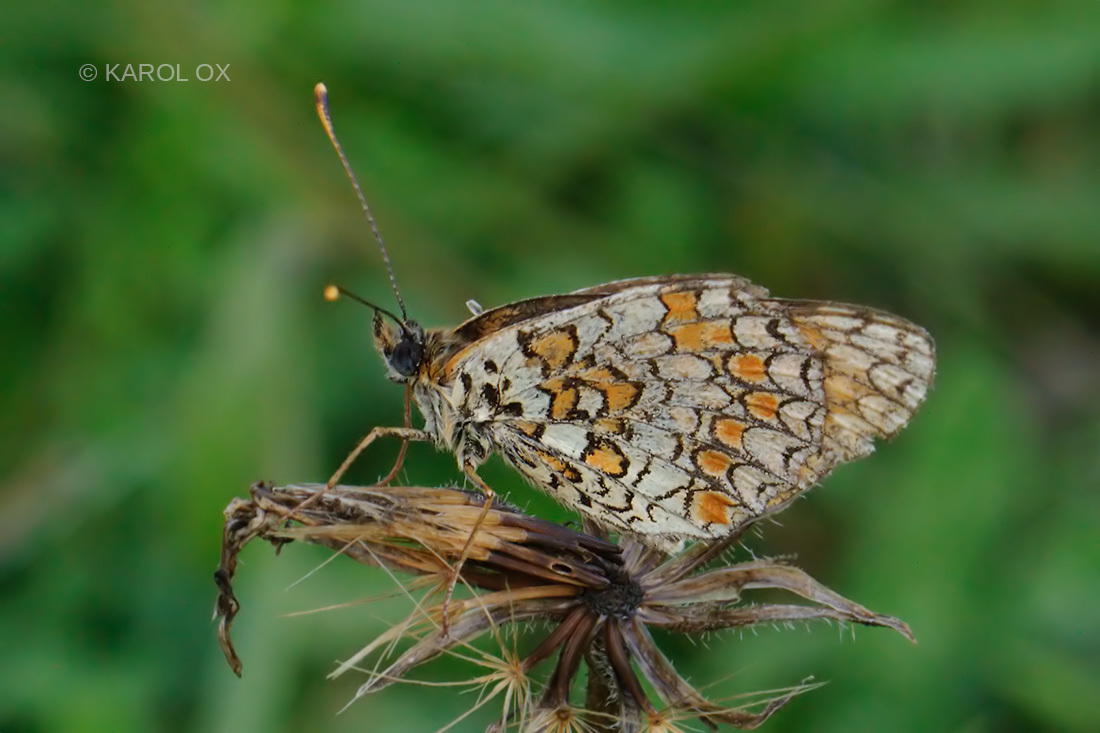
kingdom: Animalia
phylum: Arthropoda
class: Insecta
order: Lepidoptera
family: Nymphalidae
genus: Melitaea
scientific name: Melitaea phoebe
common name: Knapweed fritillary
